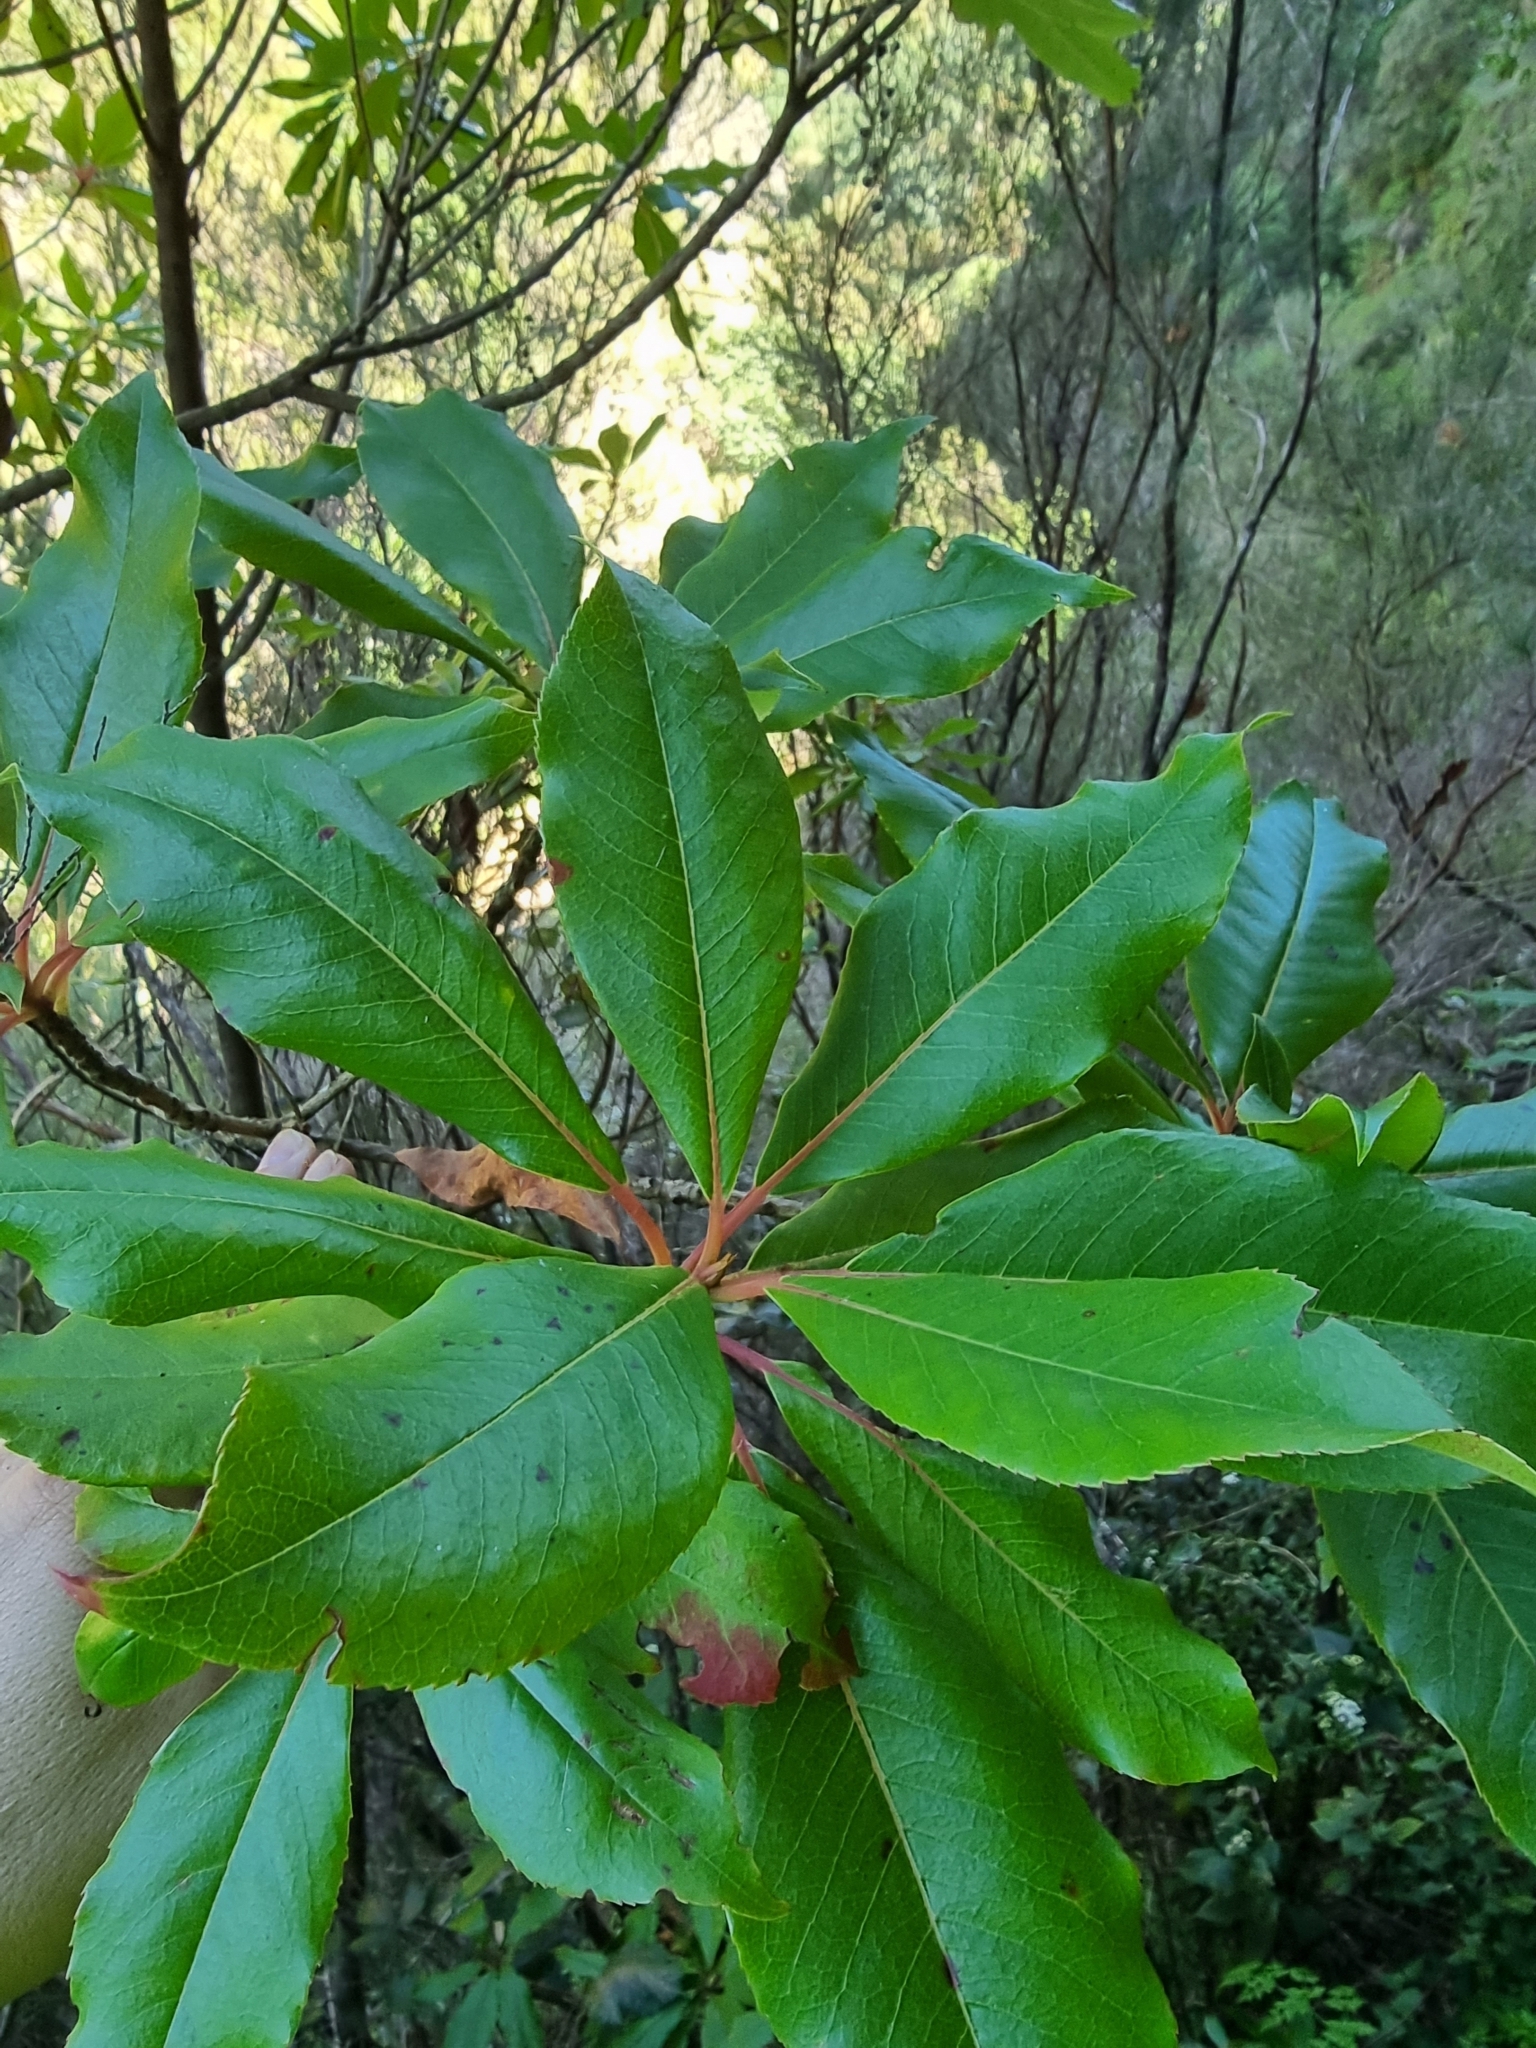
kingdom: Plantae
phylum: Tracheophyta
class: Magnoliopsida
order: Ericales
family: Clethraceae
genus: Clethra
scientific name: Clethra arborea
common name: Lily-of-the-valley-tree
